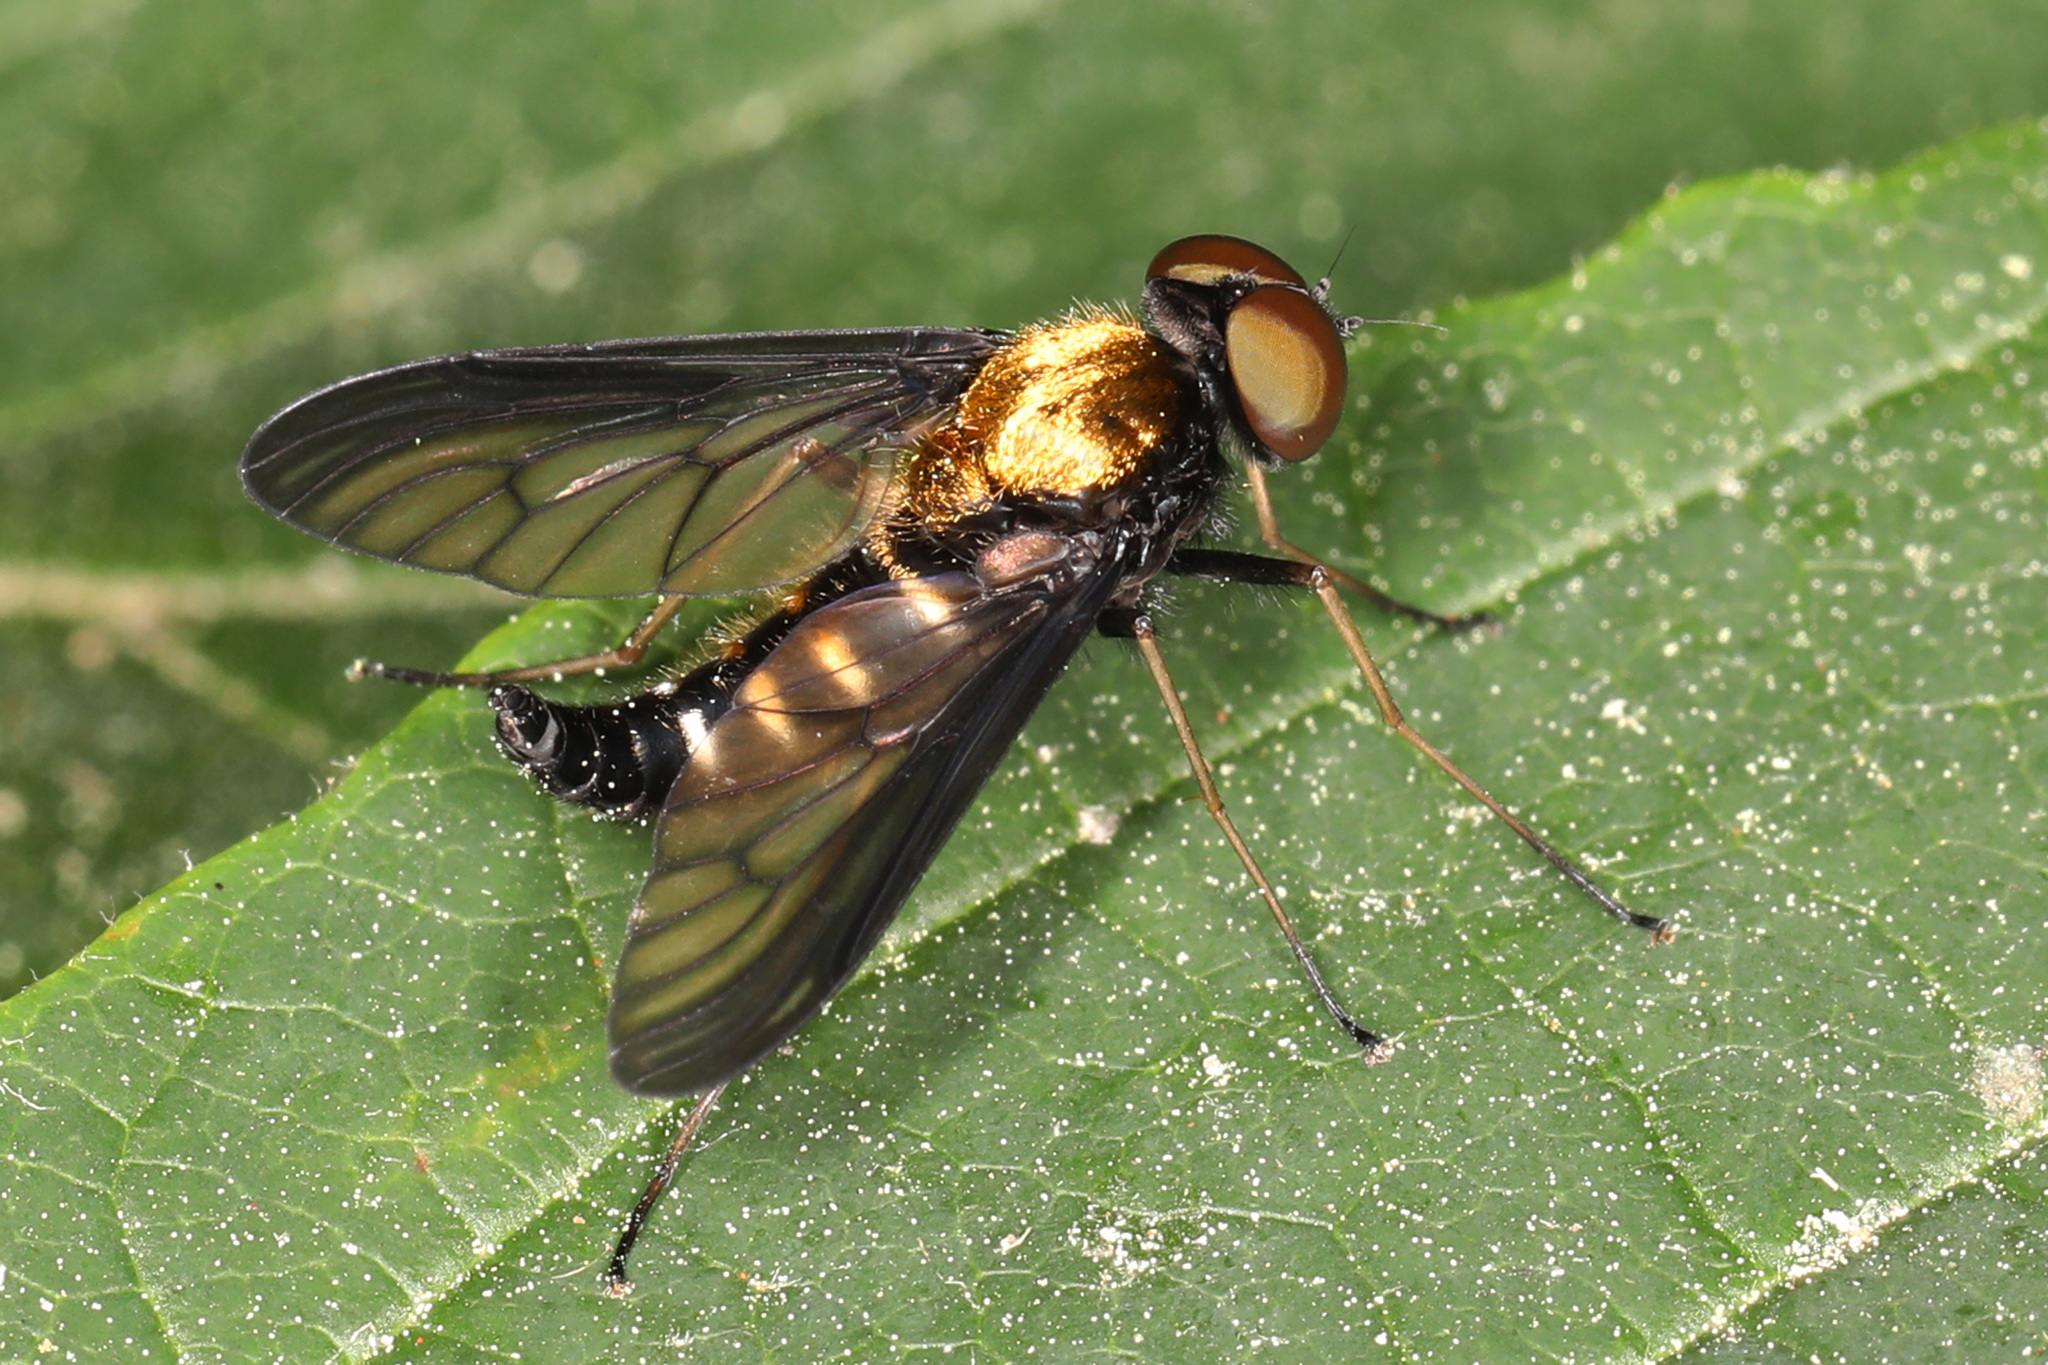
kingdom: Animalia
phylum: Arthropoda
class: Insecta
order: Diptera
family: Rhagionidae
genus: Chrysopilus
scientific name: Chrysopilus thoracicus
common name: Golden-backed snipe fly
